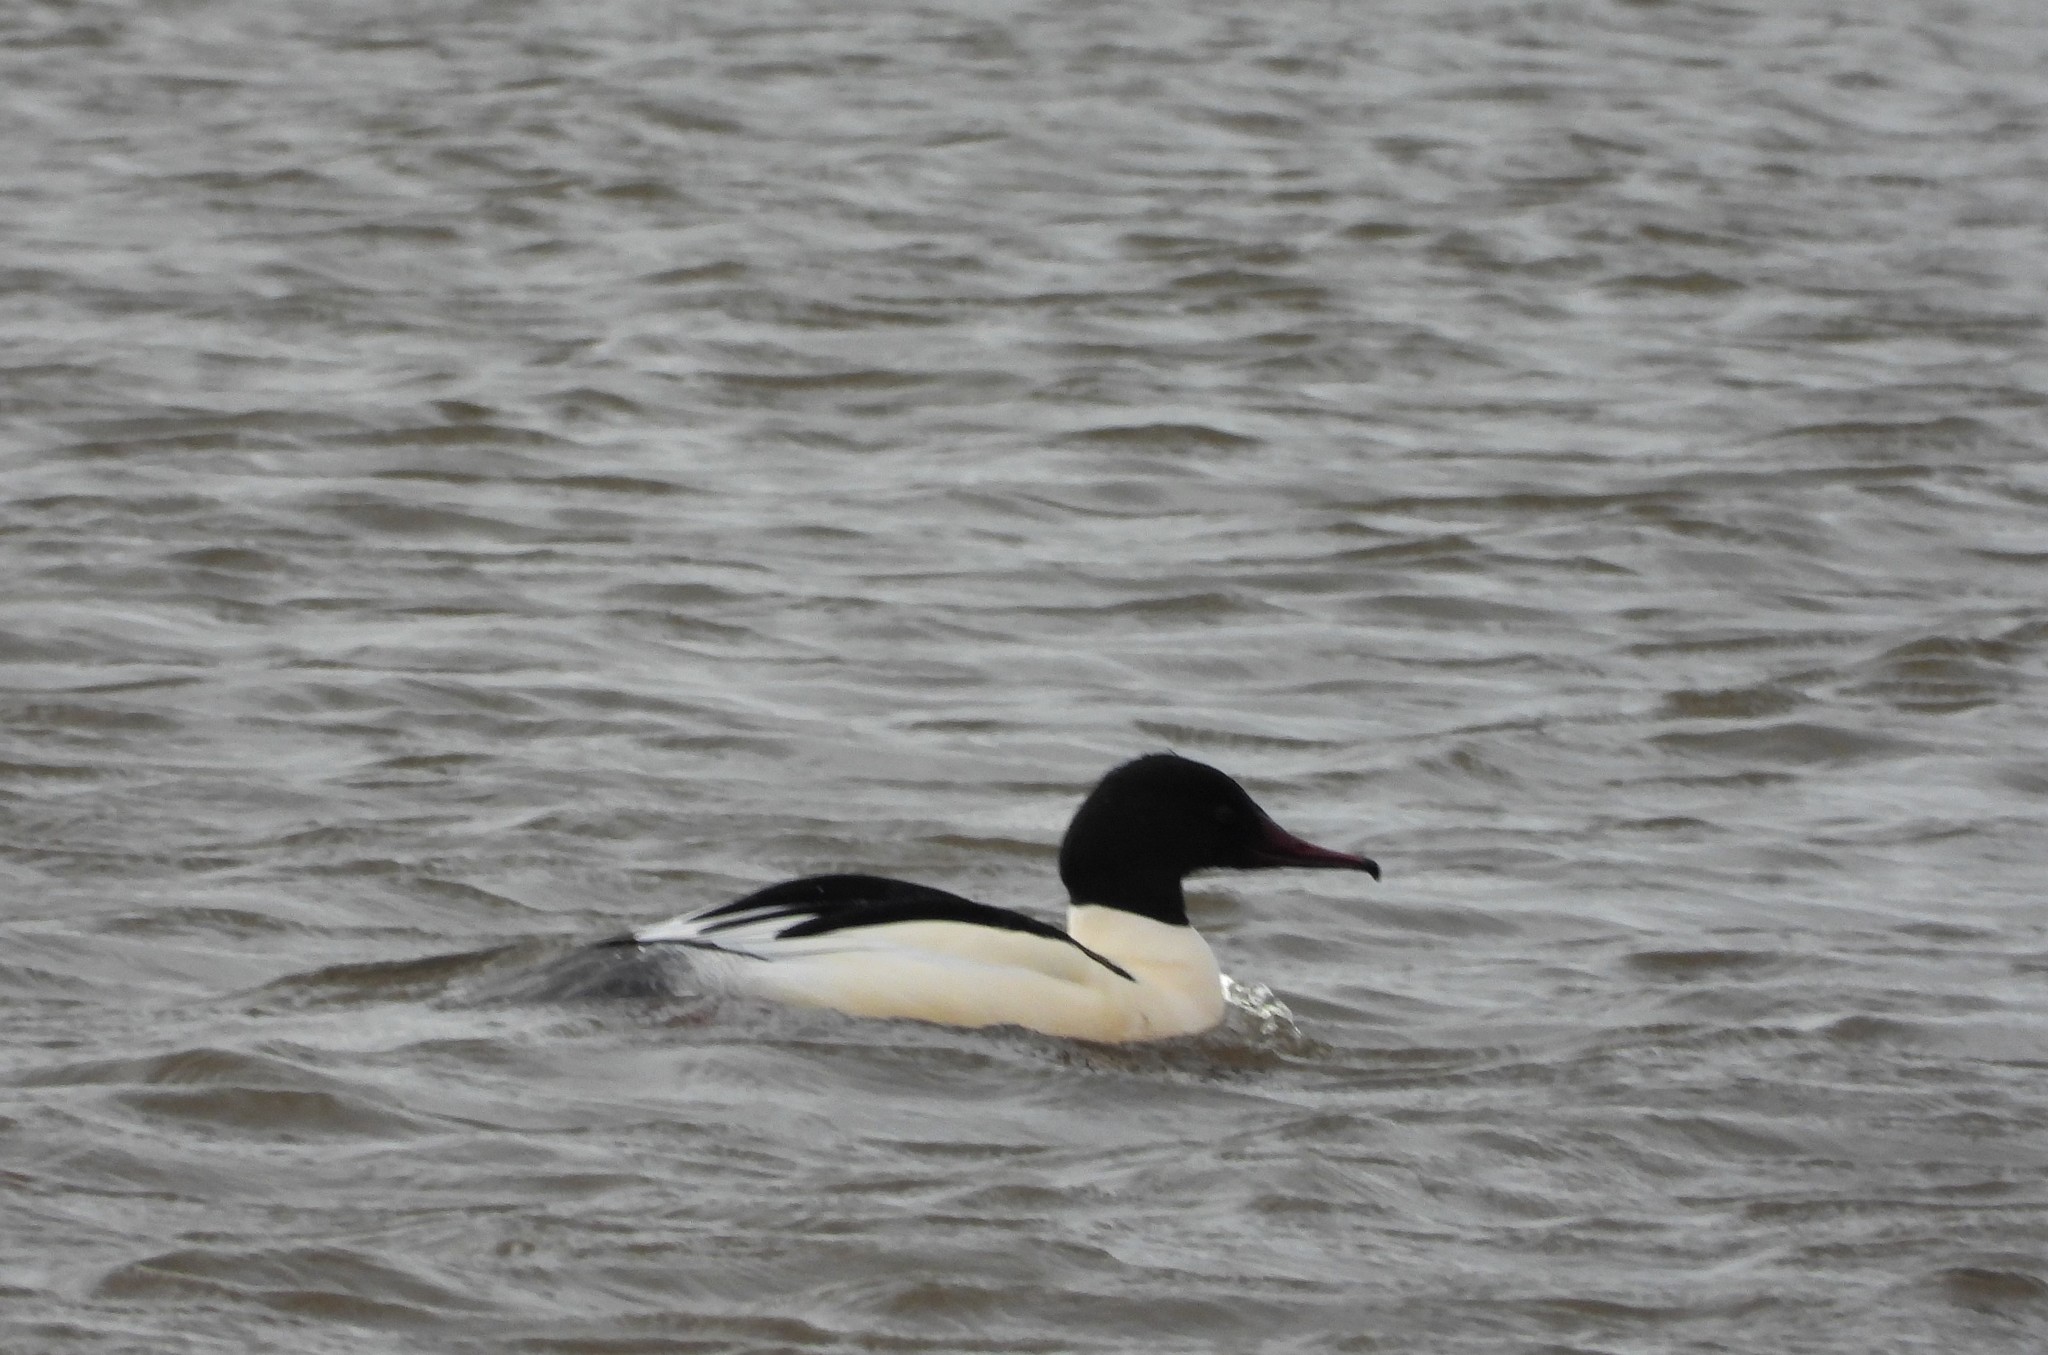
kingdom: Animalia
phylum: Chordata
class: Aves
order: Anseriformes
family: Anatidae
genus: Mergus
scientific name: Mergus merganser
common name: Common merganser
